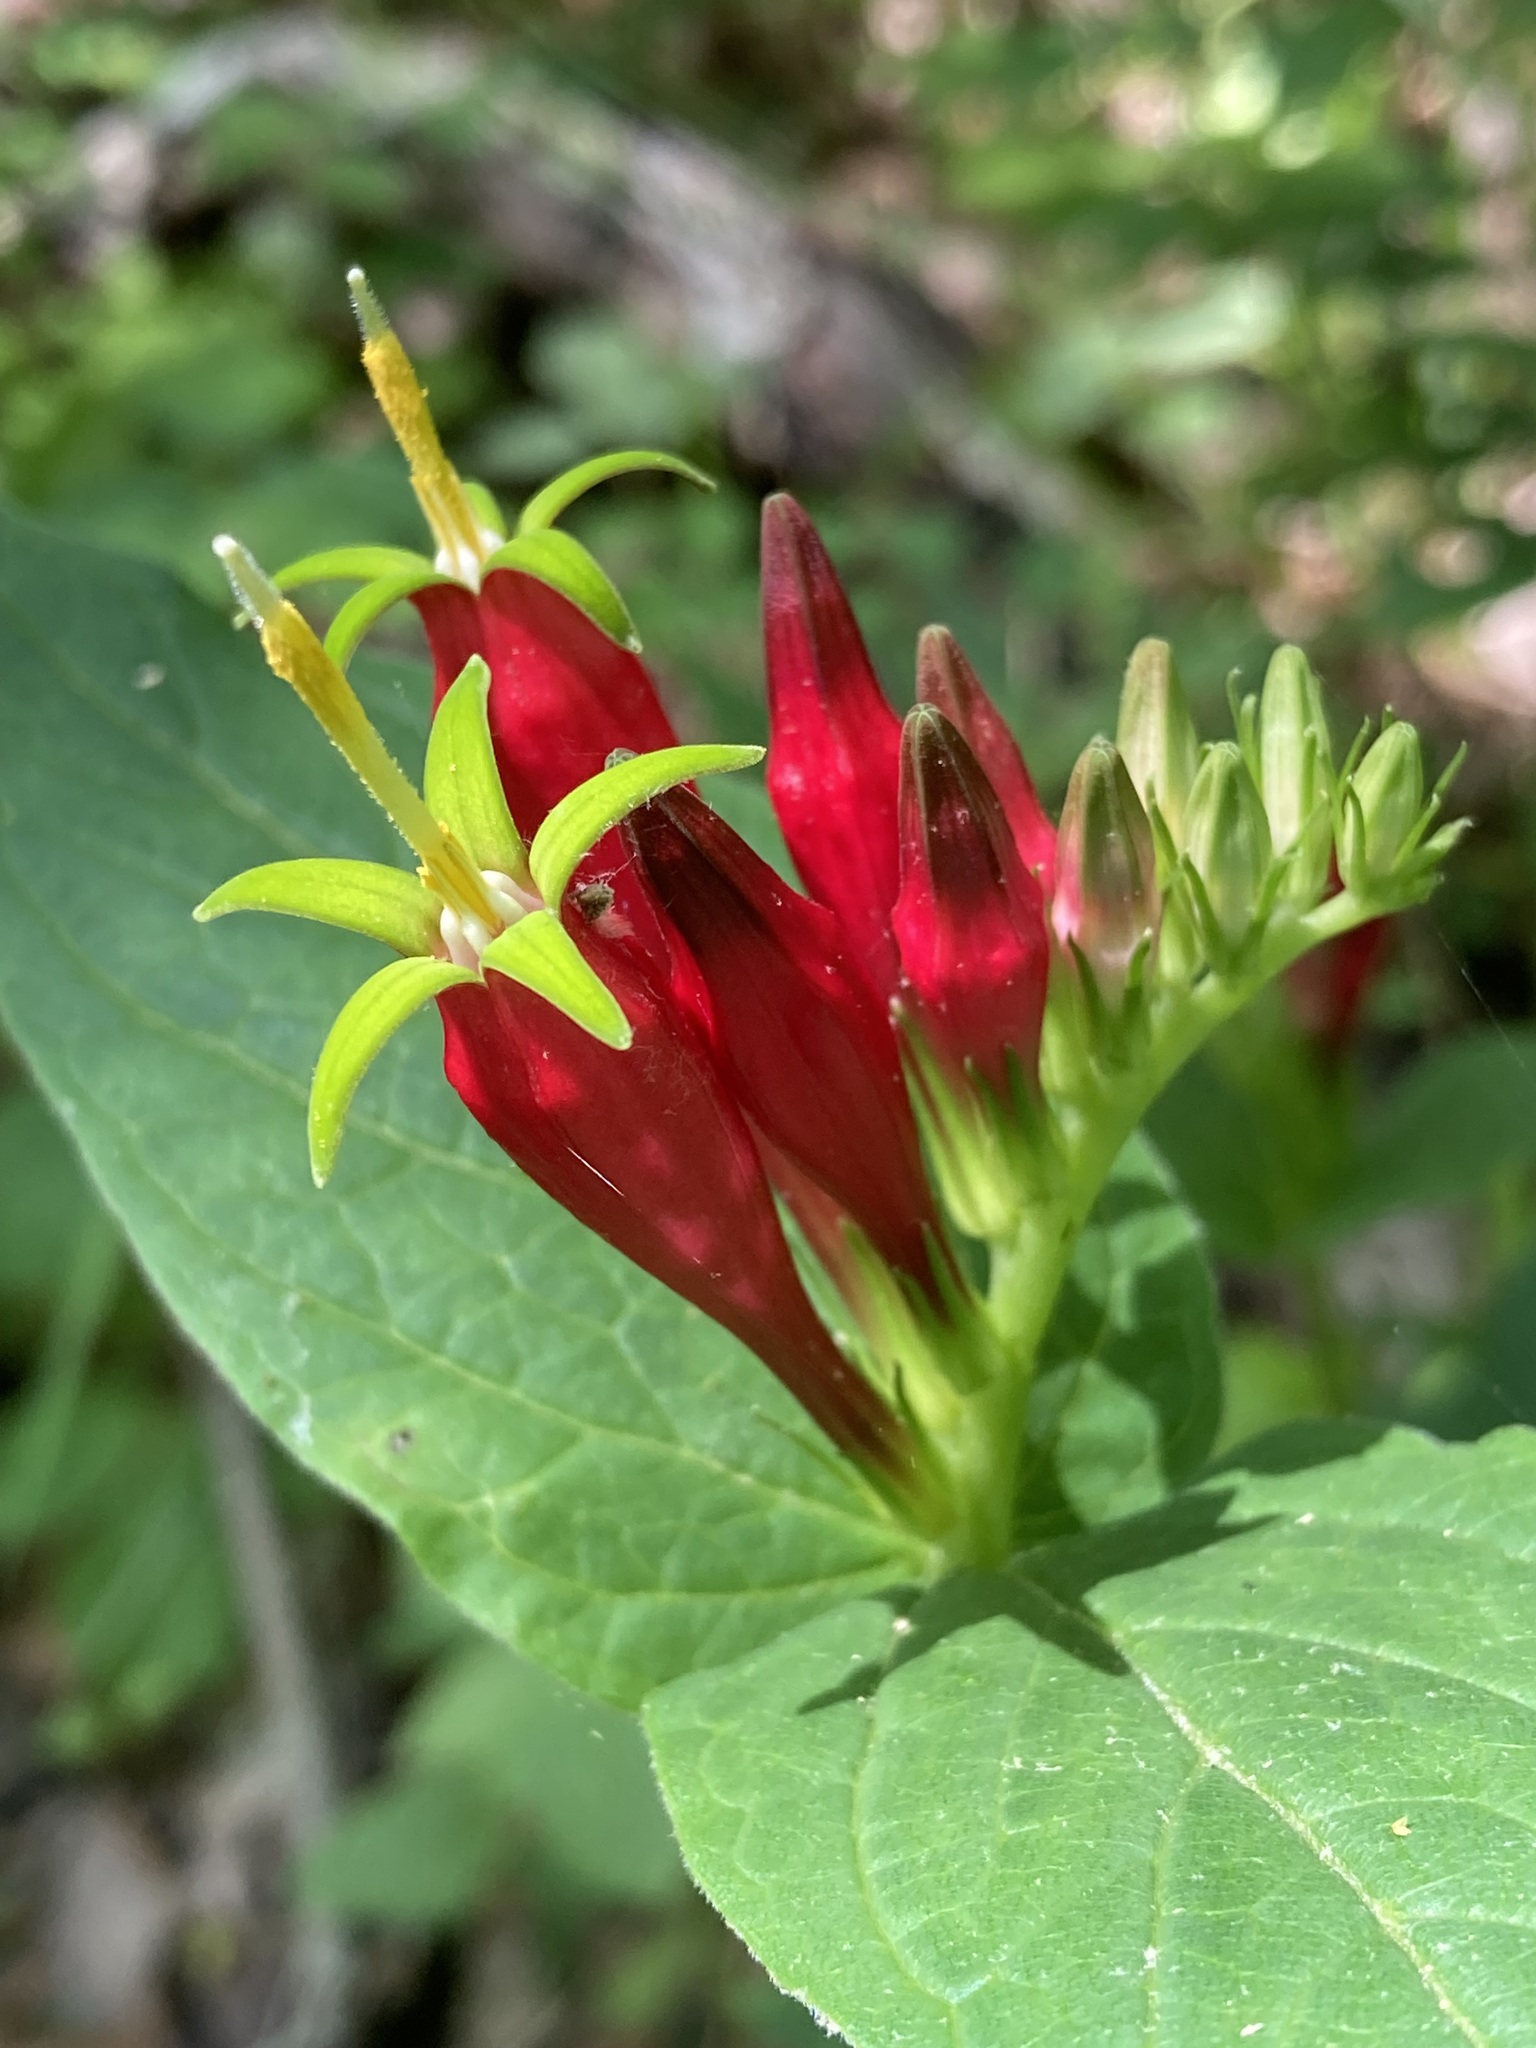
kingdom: Plantae
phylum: Tracheophyta
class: Magnoliopsida
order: Gentianales
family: Loganiaceae
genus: Spigelia
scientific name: Spigelia marilandica
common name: Indian-pink
